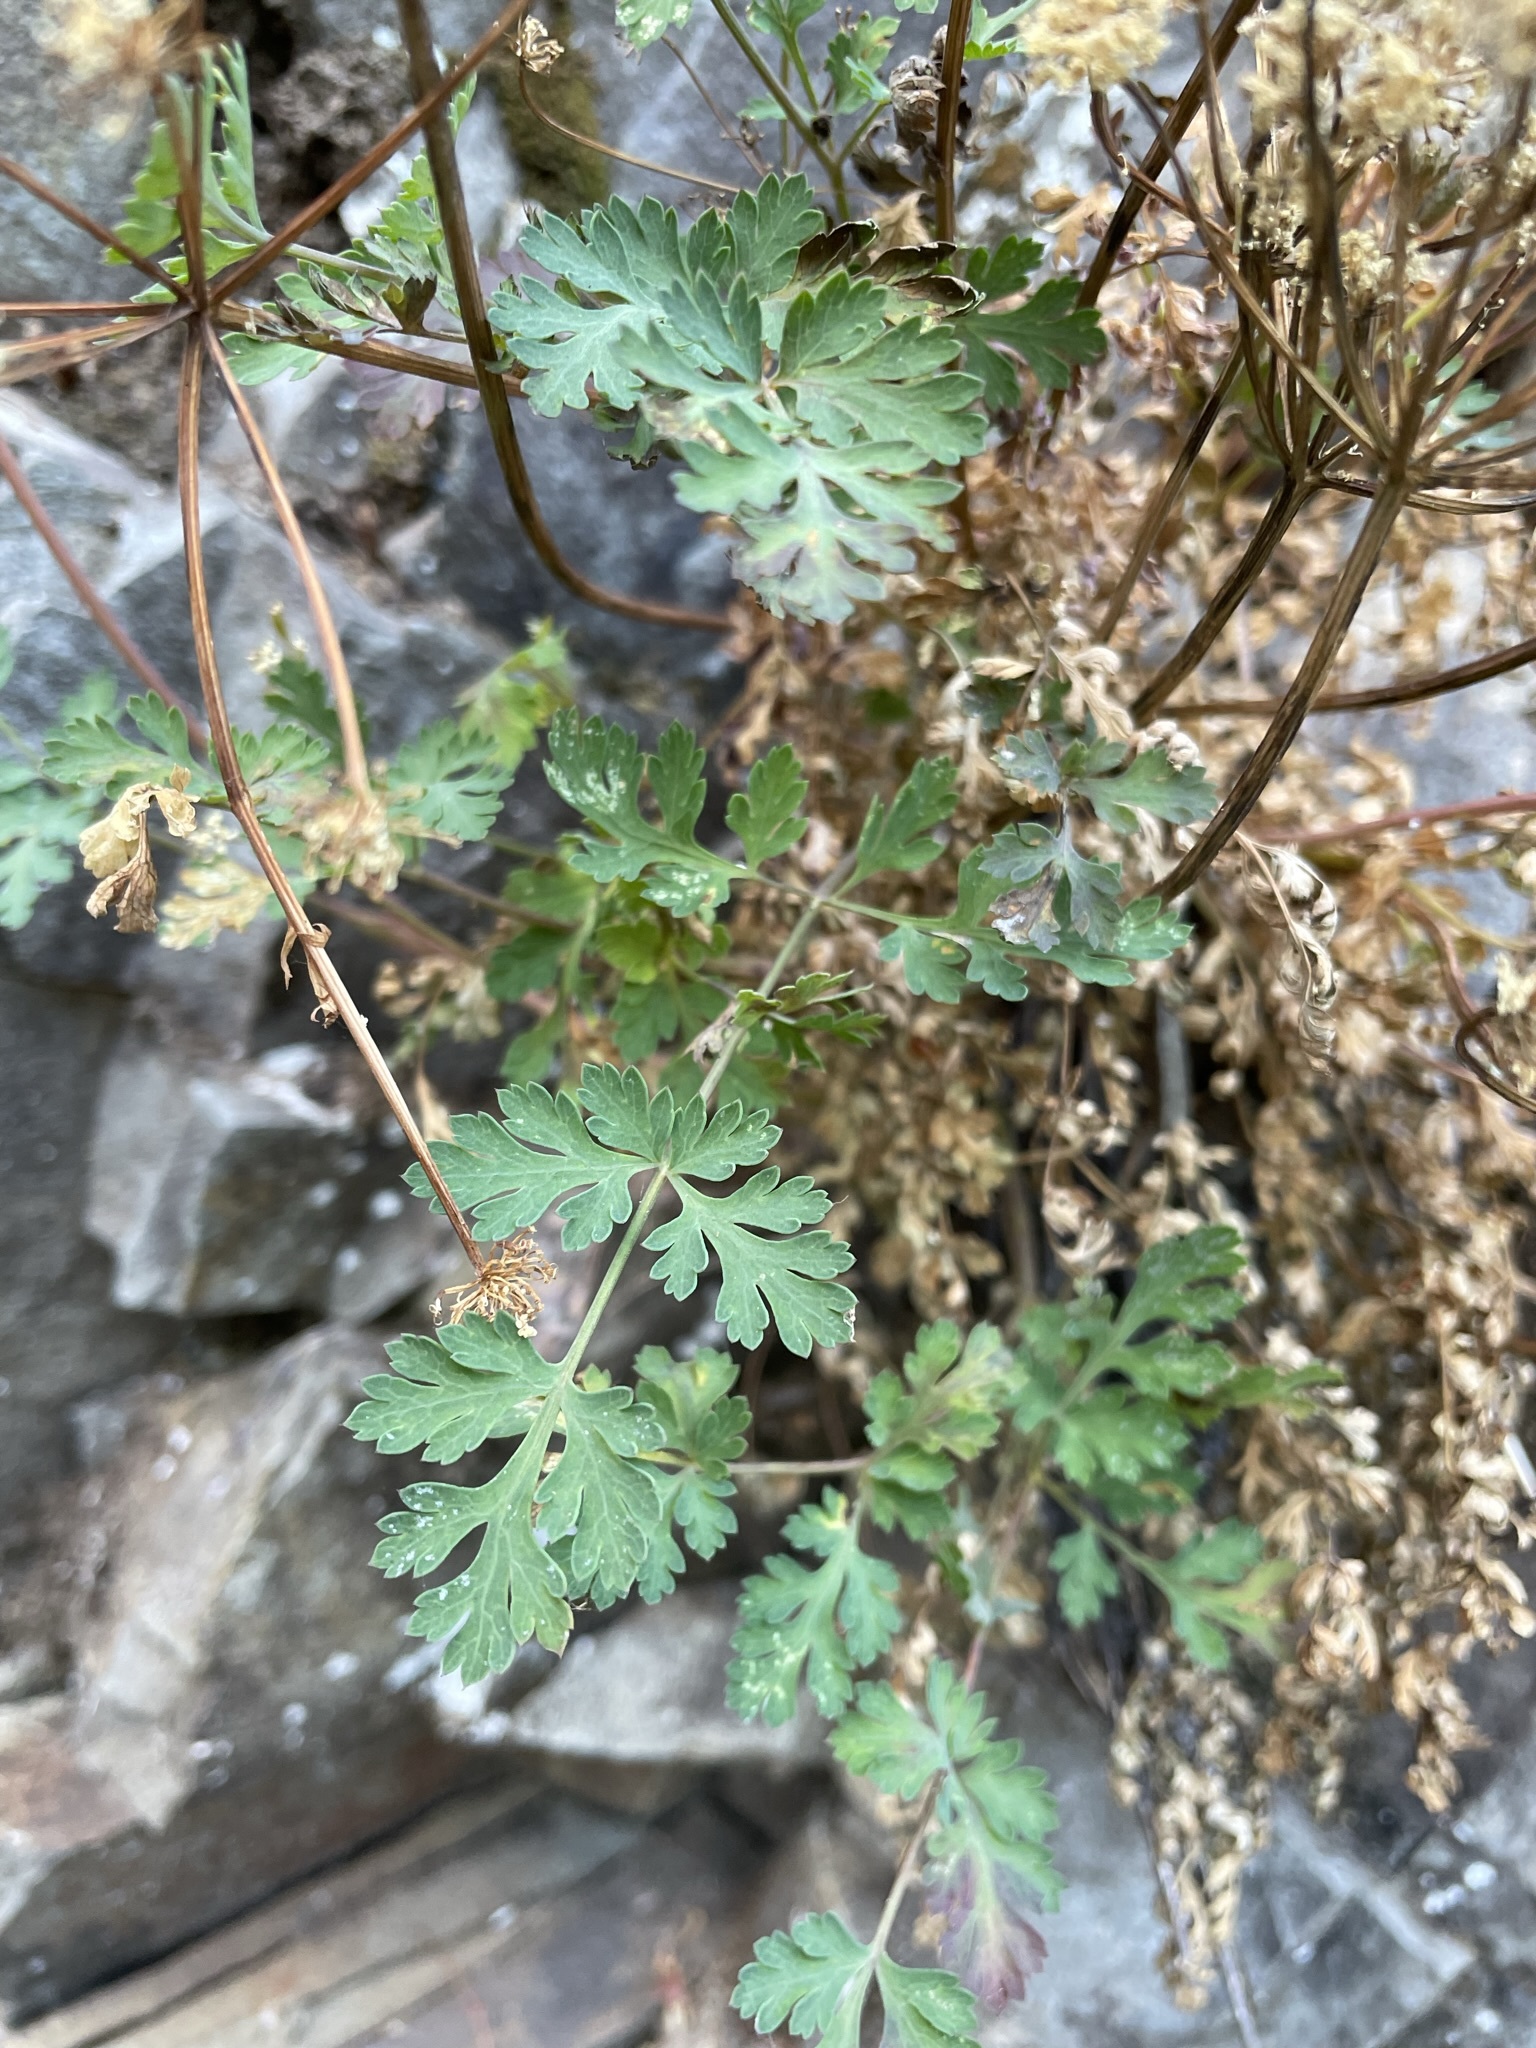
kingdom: Plantae
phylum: Tracheophyta
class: Magnoliopsida
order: Apiales
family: Apiaceae
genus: Lomatium
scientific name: Lomatium martindalei
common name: Cascade desert-parsley
